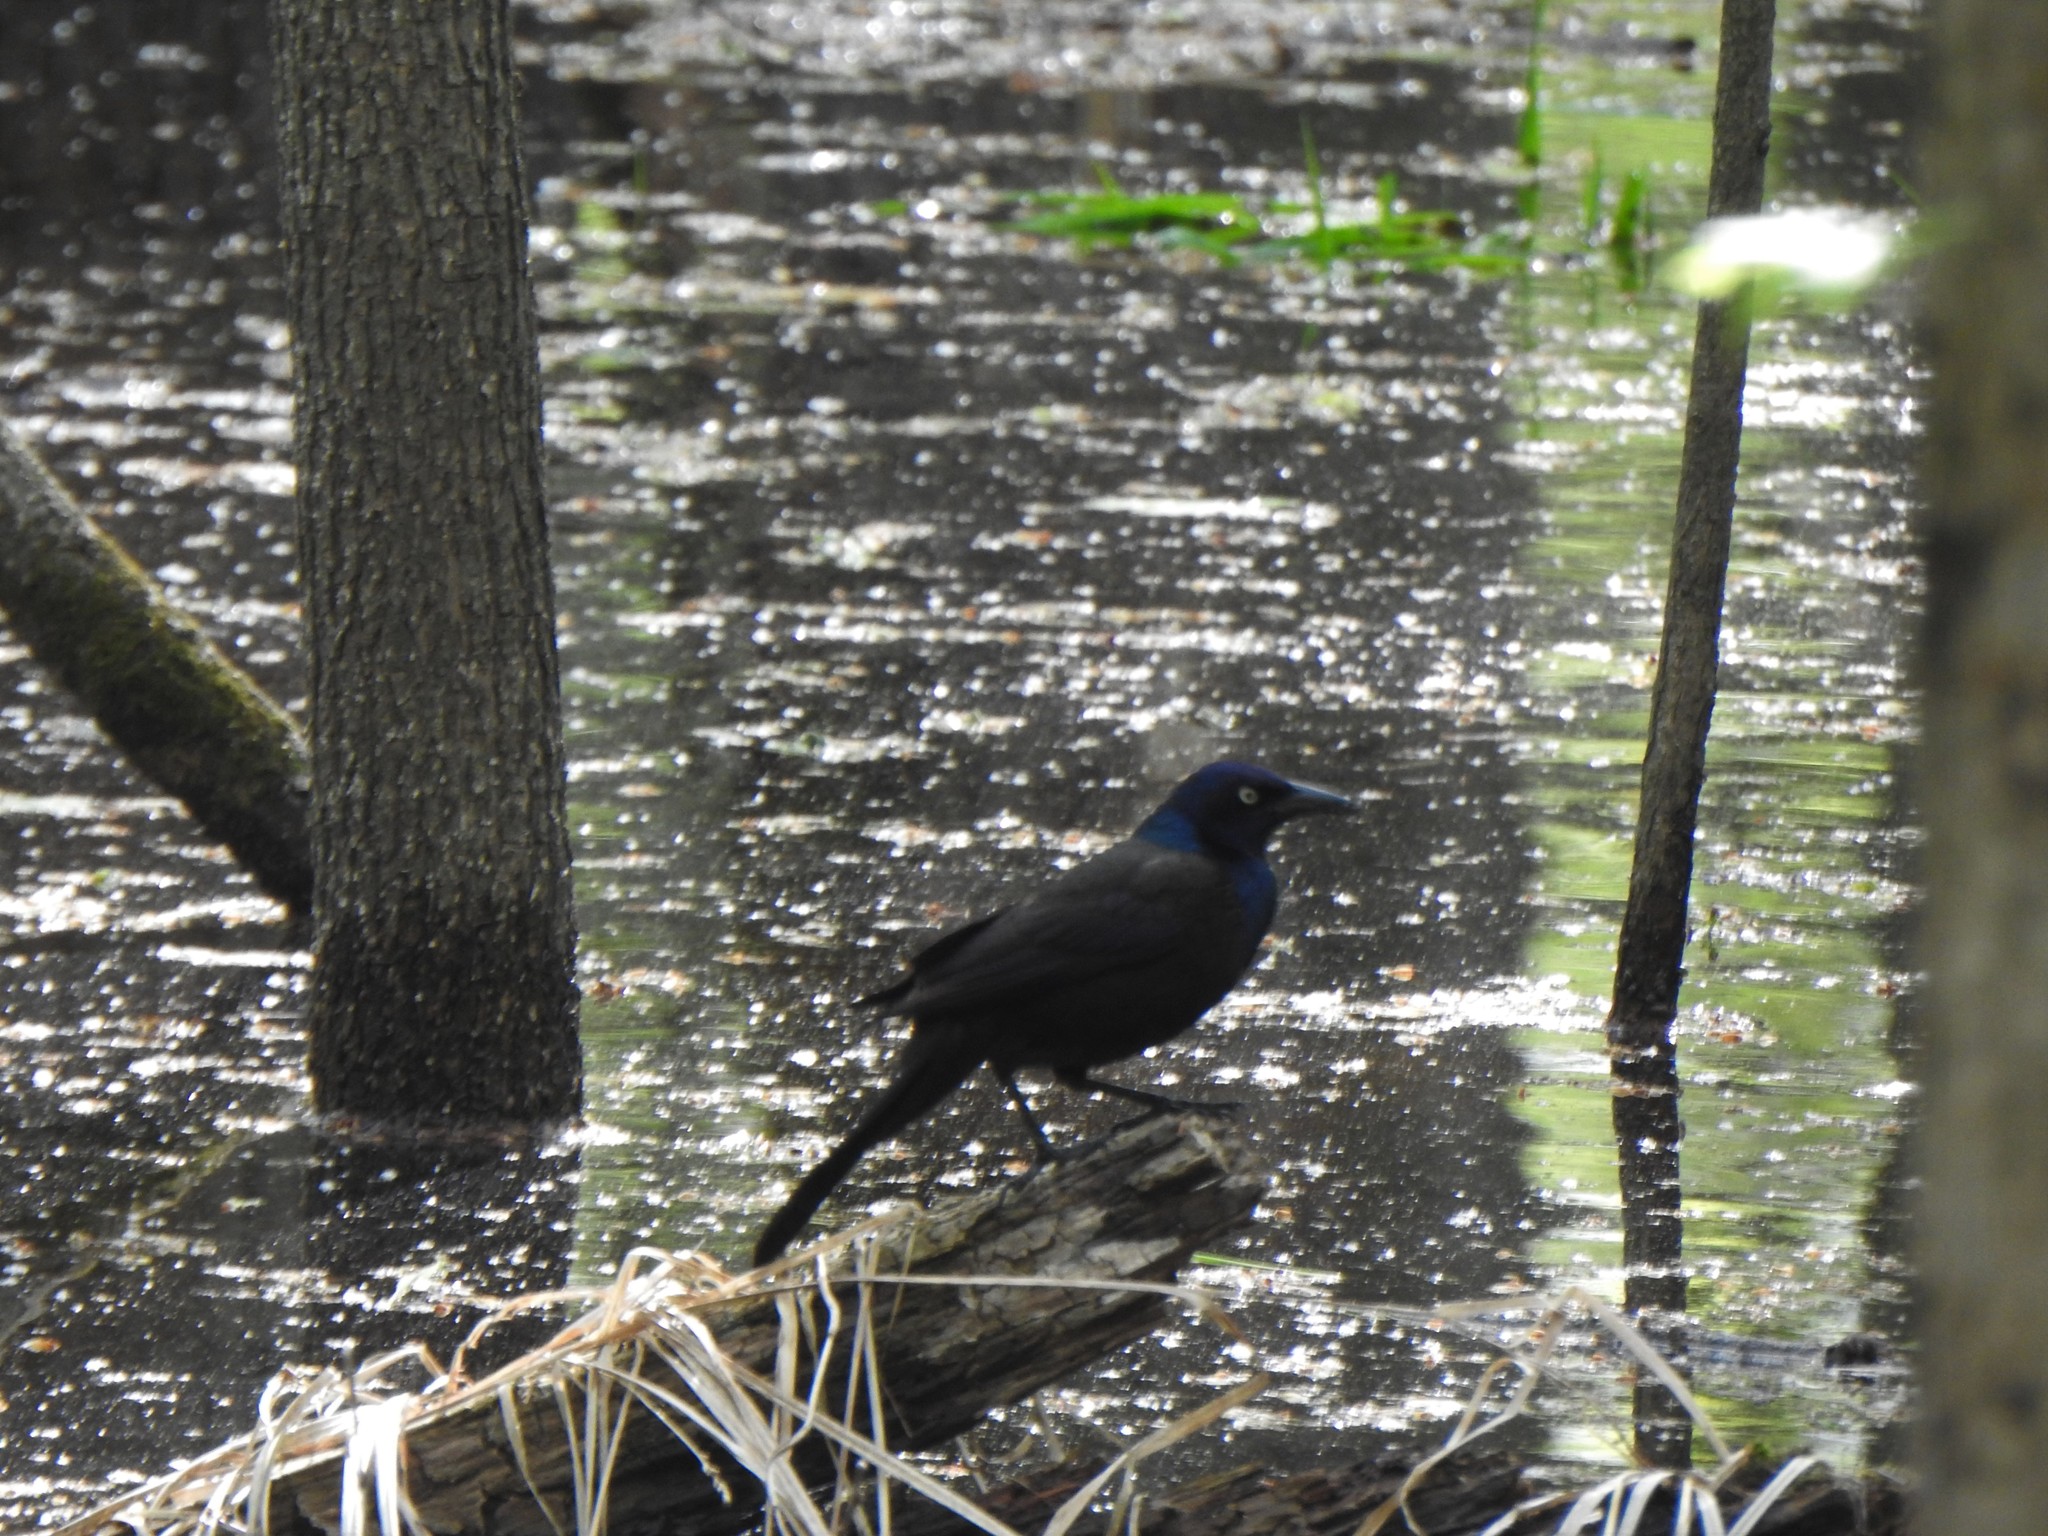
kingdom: Animalia
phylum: Chordata
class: Aves
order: Passeriformes
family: Icteridae
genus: Quiscalus
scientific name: Quiscalus quiscula
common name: Common grackle
